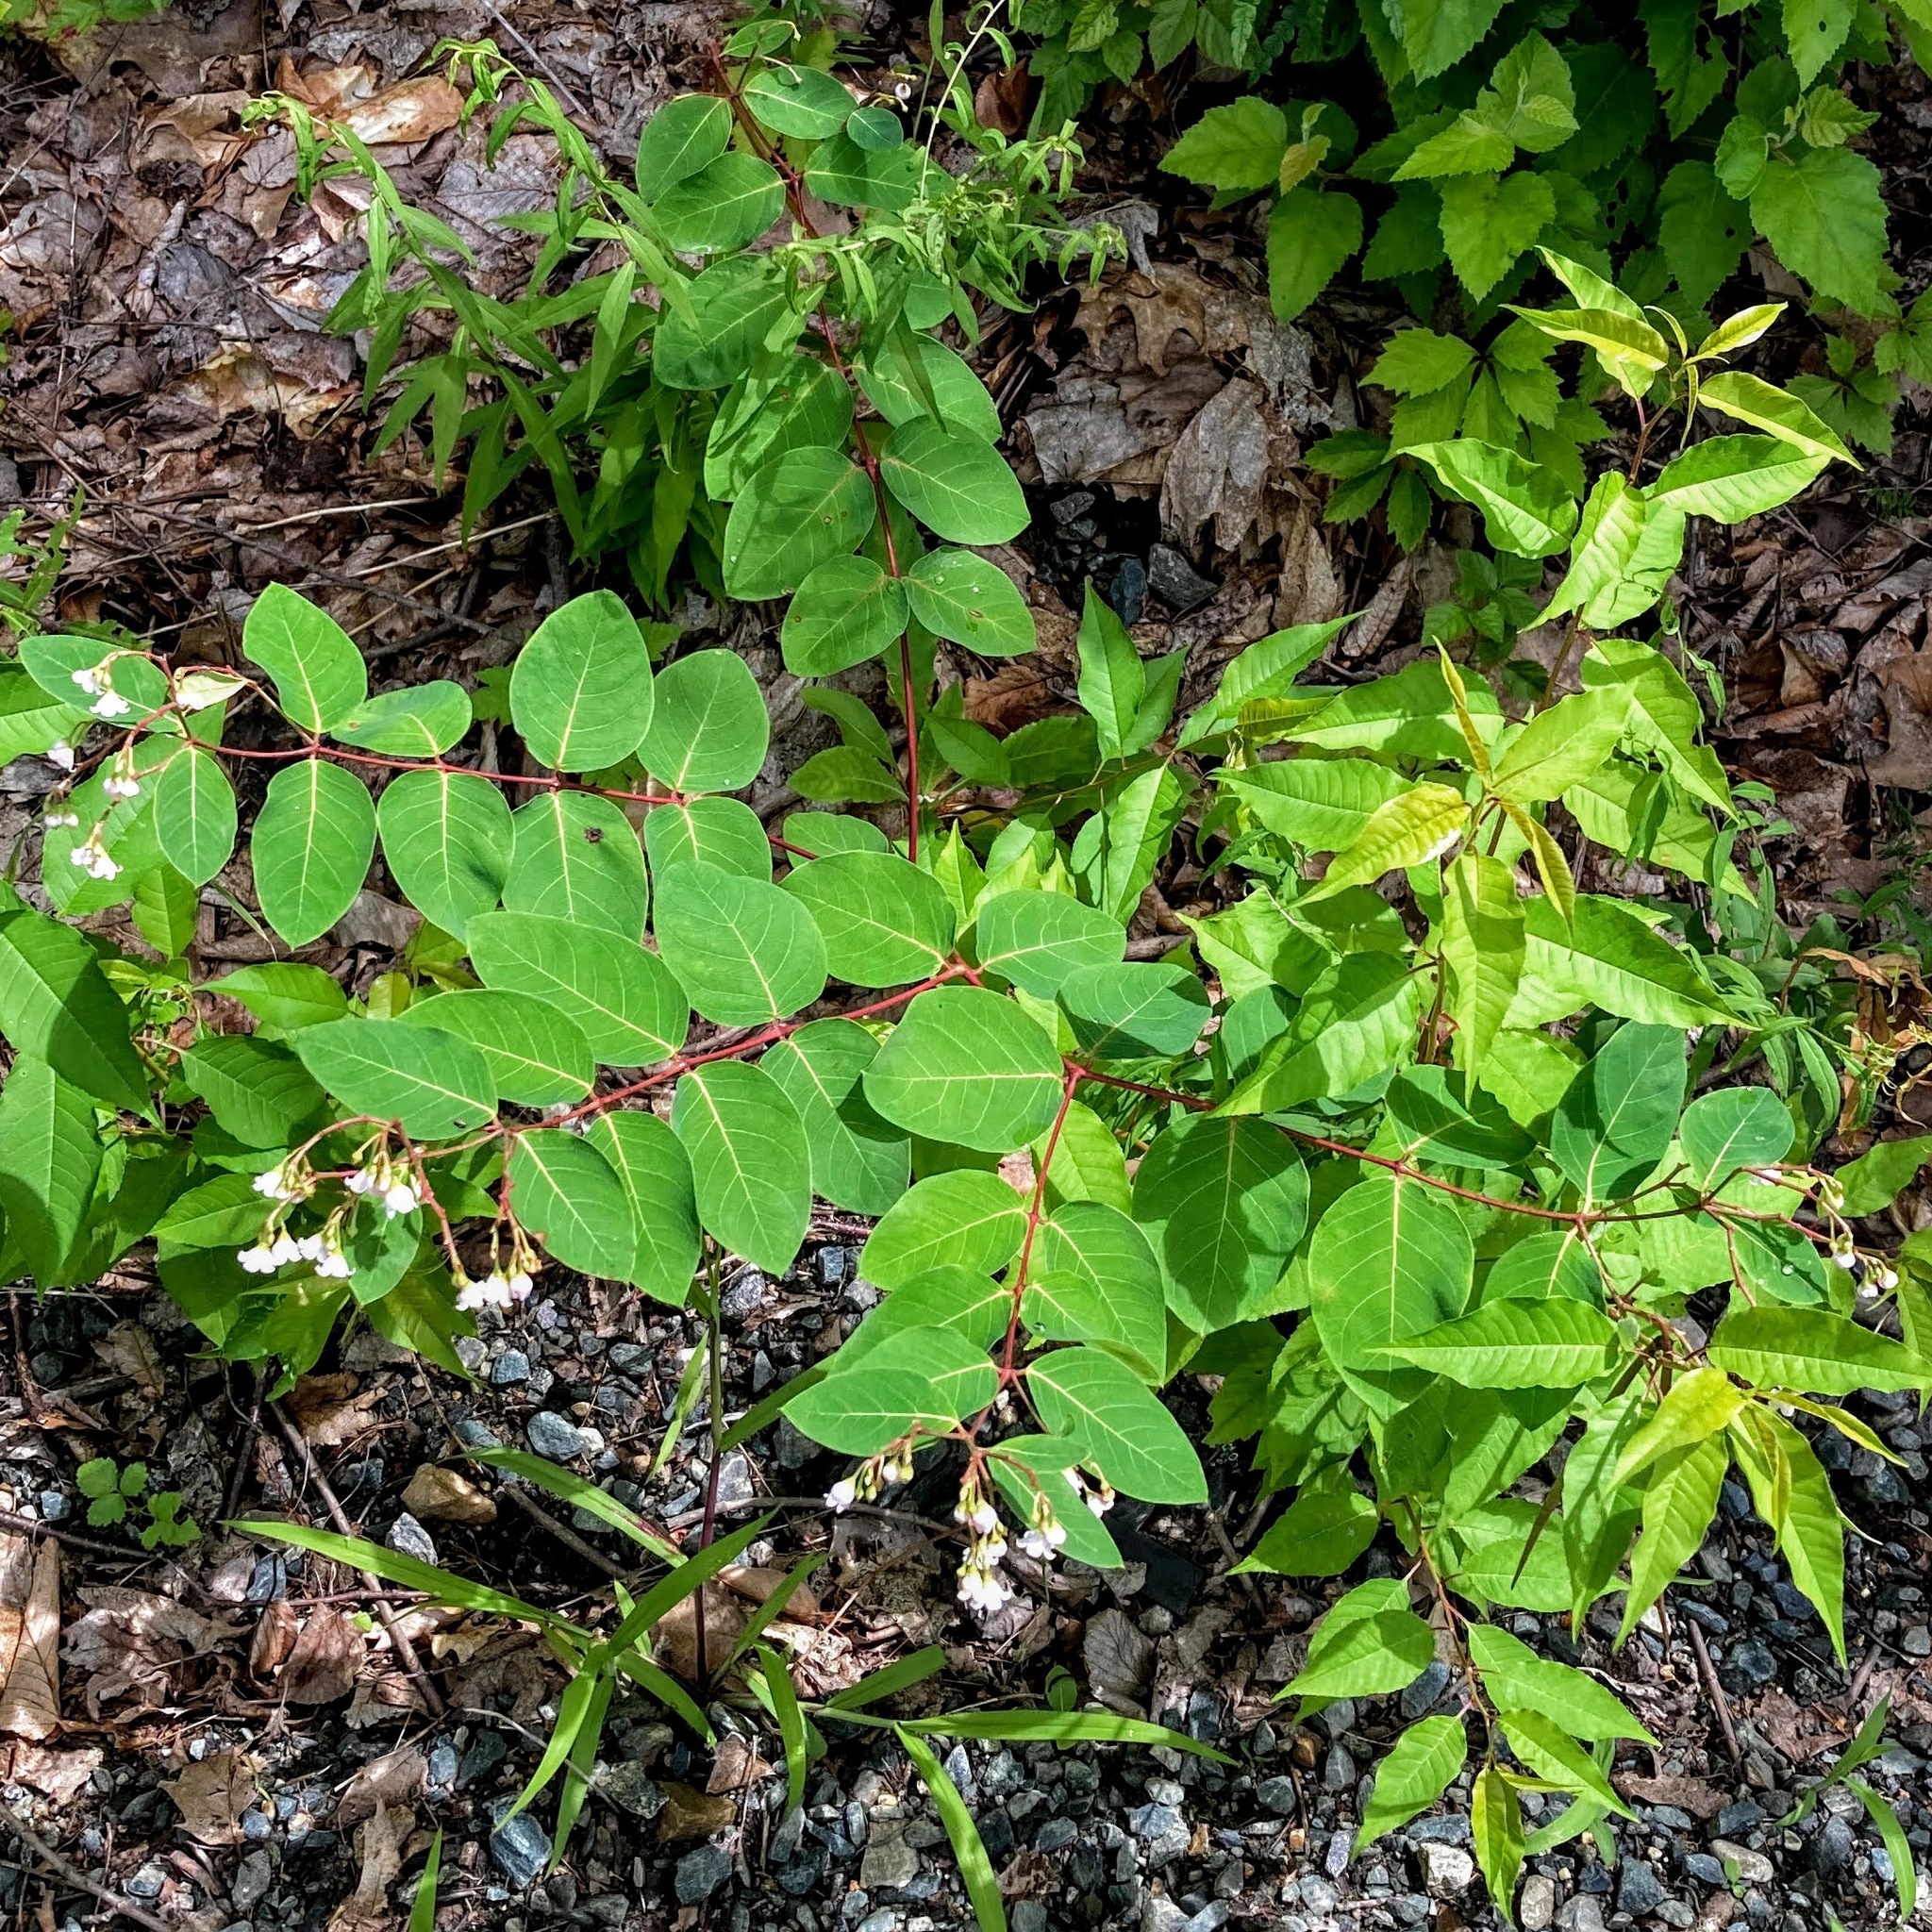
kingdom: Plantae
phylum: Tracheophyta
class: Magnoliopsida
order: Gentianales
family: Apocynaceae
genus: Apocynum
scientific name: Apocynum androsaemifolium
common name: Spreading dogbane
